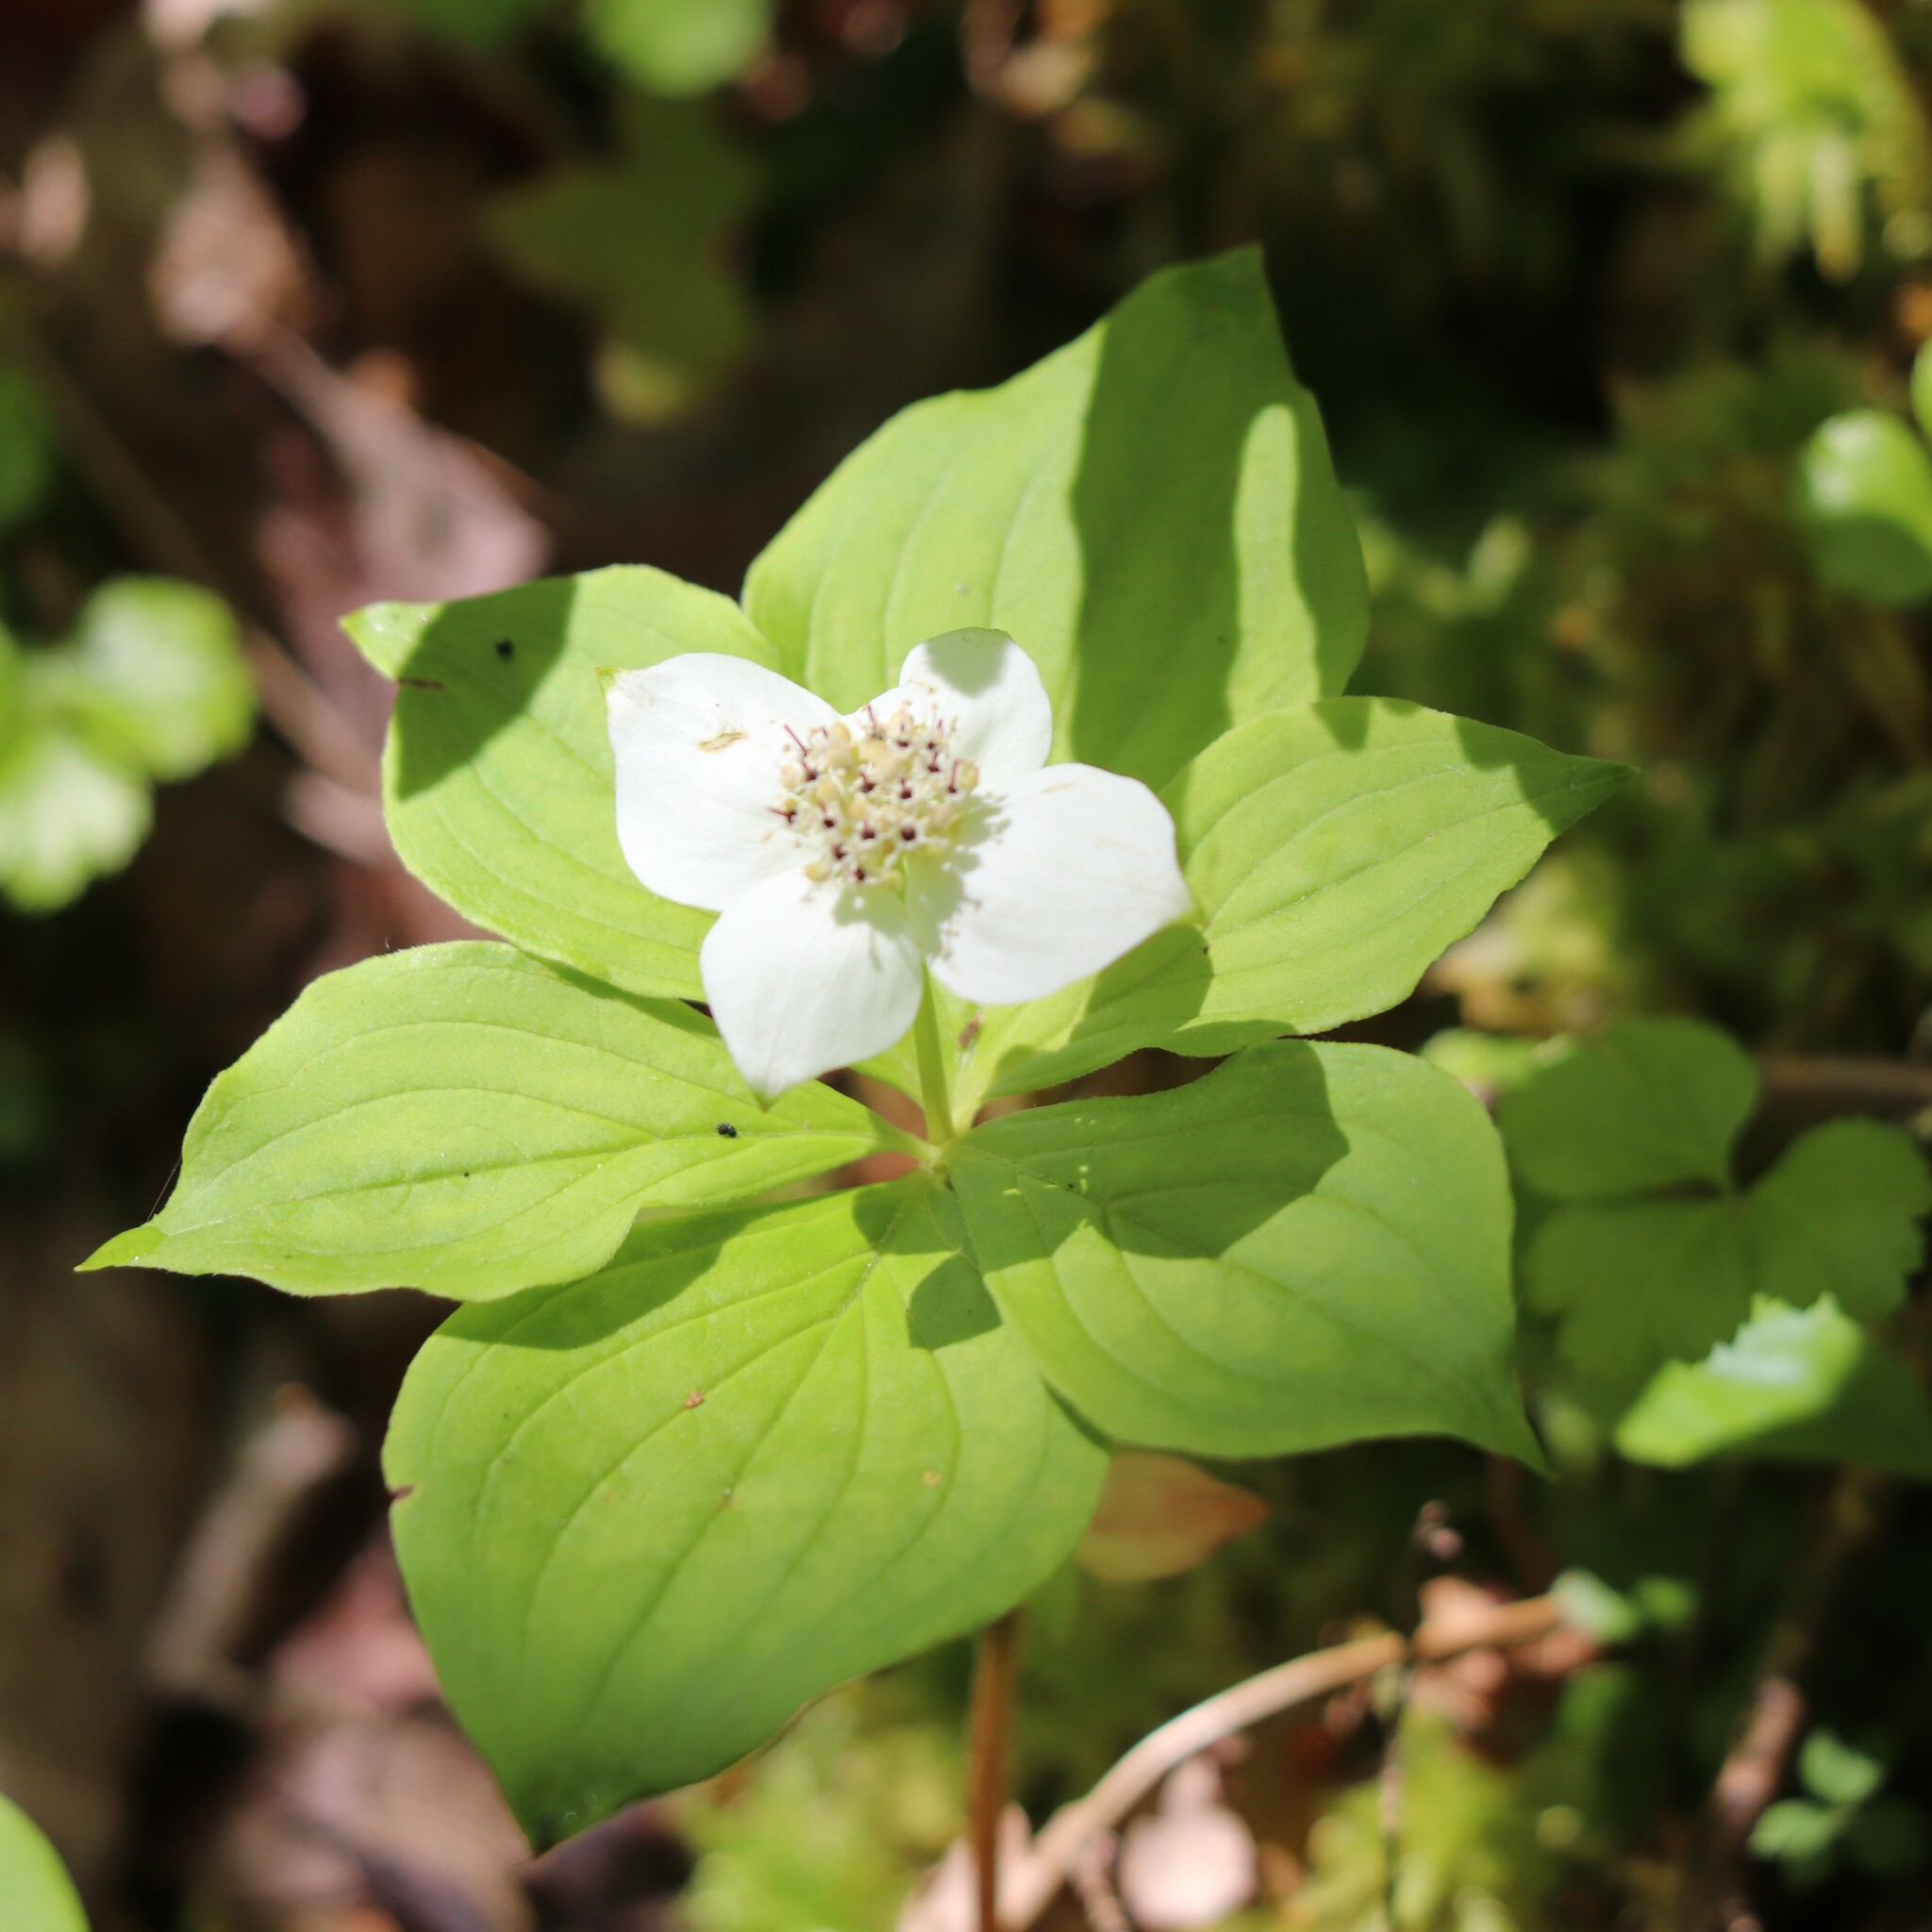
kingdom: Plantae
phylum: Tracheophyta
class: Magnoliopsida
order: Cornales
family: Cornaceae
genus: Cornus
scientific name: Cornus canadensis
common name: Creeping dogwood
